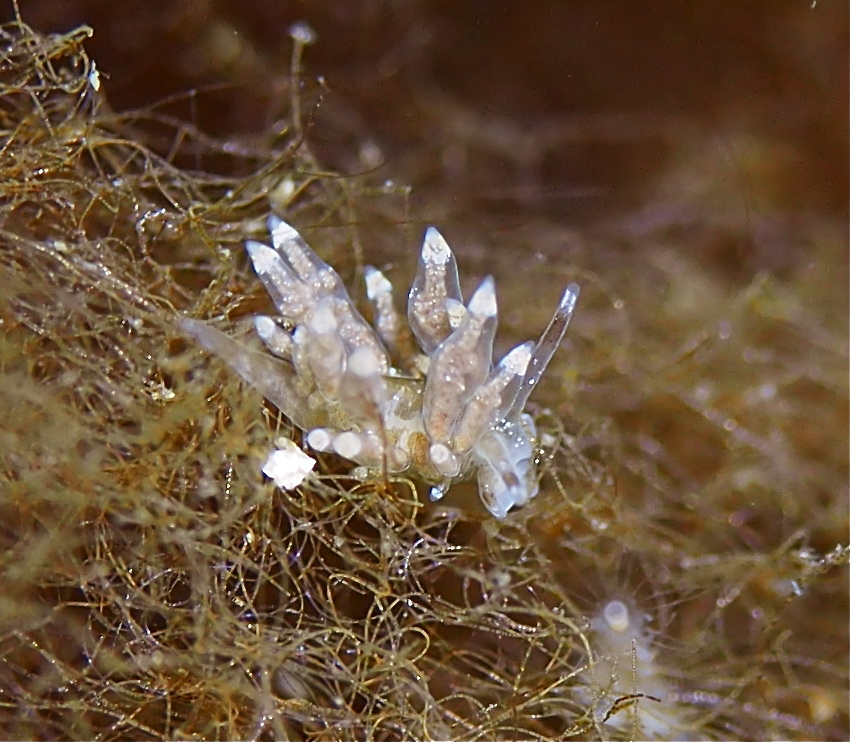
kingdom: Animalia
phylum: Mollusca
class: Gastropoda
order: Nudibranchia
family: Eubranchidae
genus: Eubranchus
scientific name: Eubranchus exiguus
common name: Balloon aeolis
